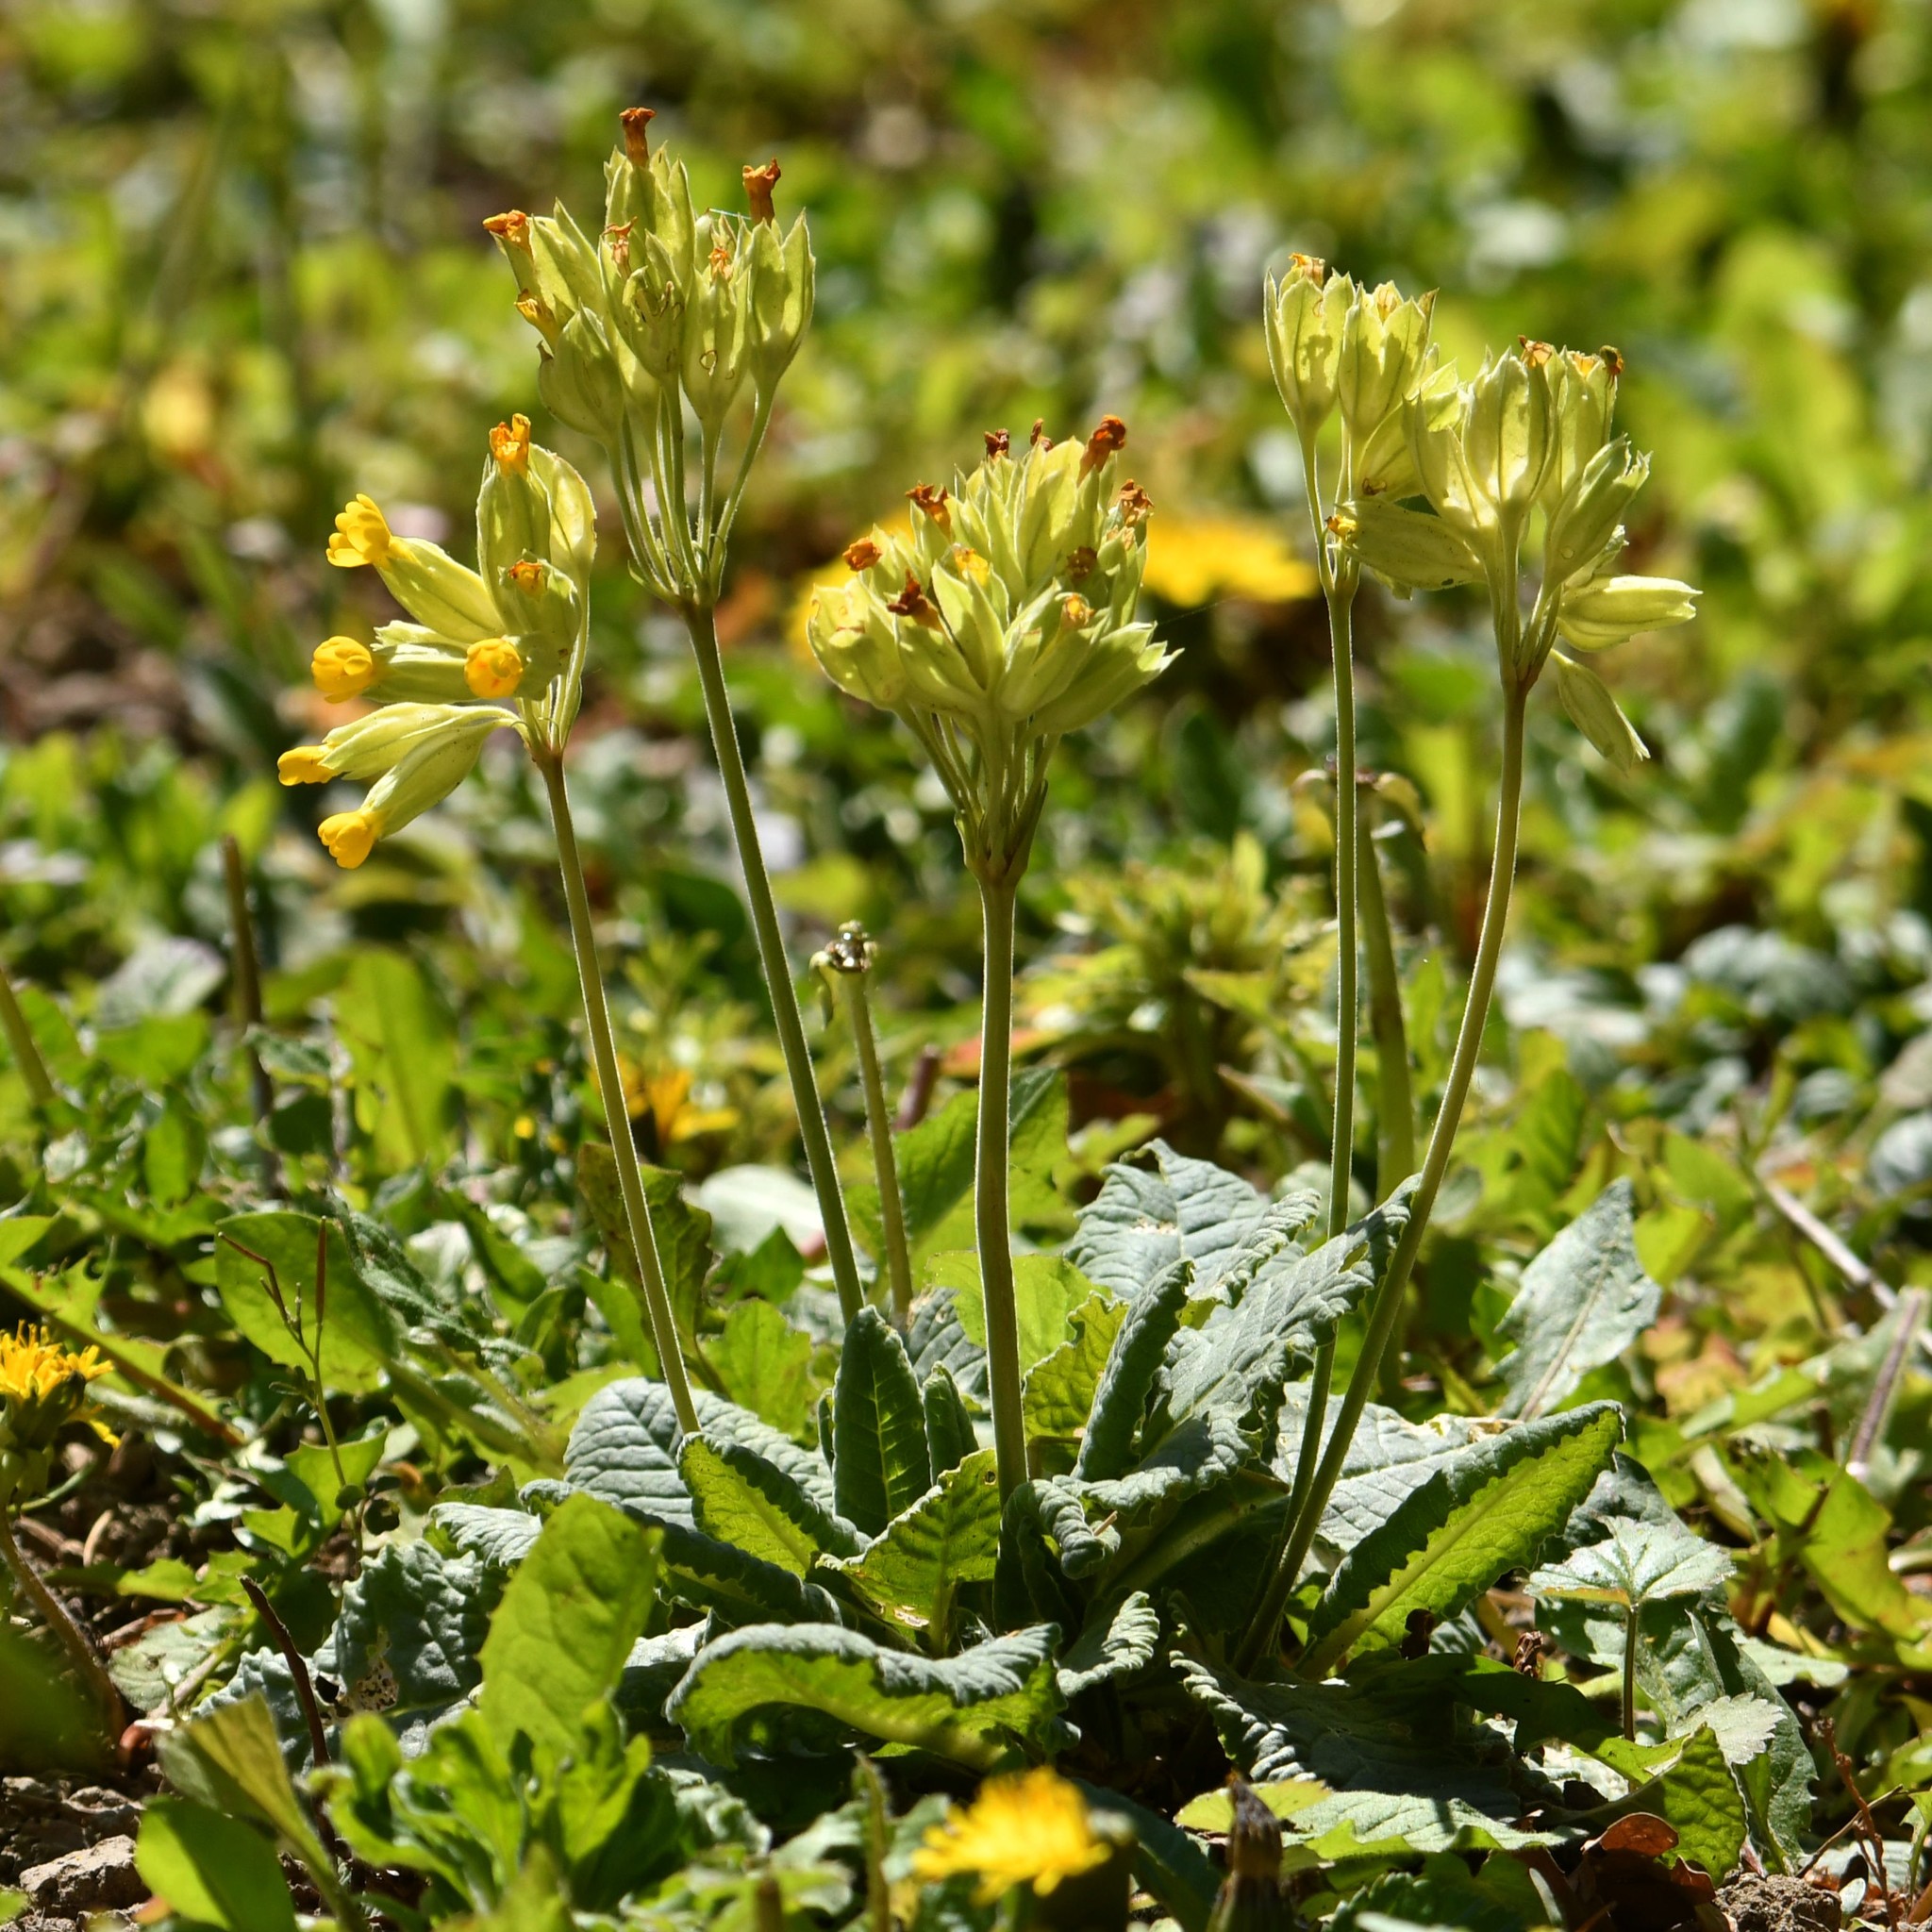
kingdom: Plantae
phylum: Tracheophyta
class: Magnoliopsida
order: Ericales
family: Primulaceae
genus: Primula
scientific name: Primula veris
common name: Cowslip
